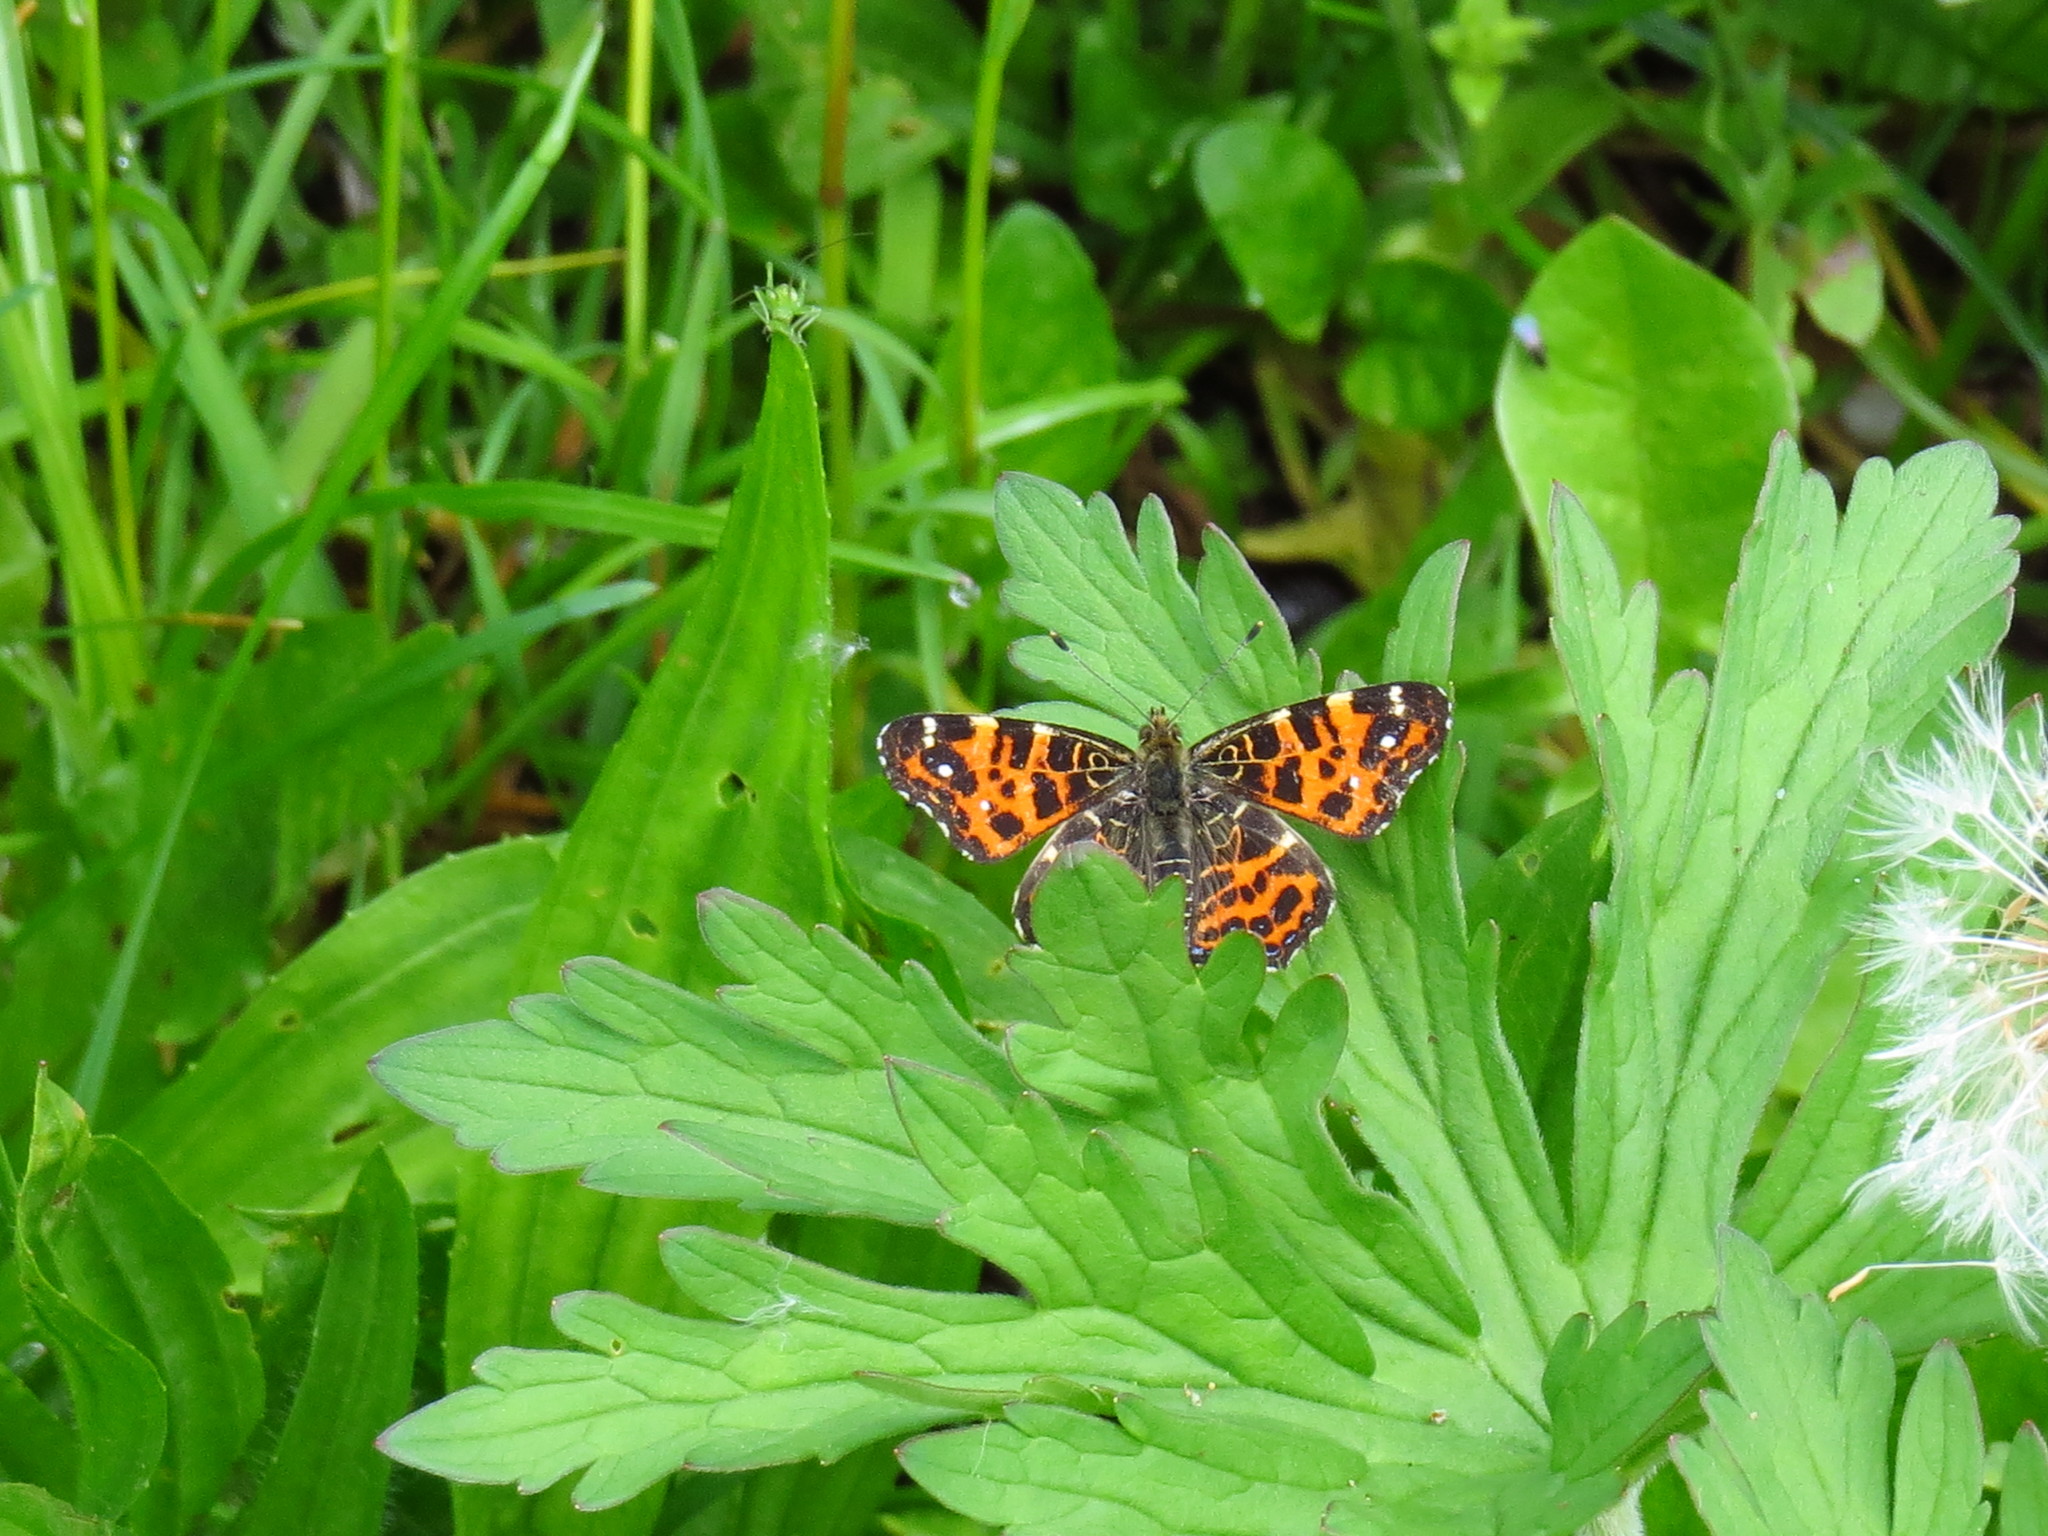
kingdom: Animalia
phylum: Arthropoda
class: Insecta
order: Lepidoptera
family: Nymphalidae
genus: Araschnia
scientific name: Araschnia levana
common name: Map butterfly
